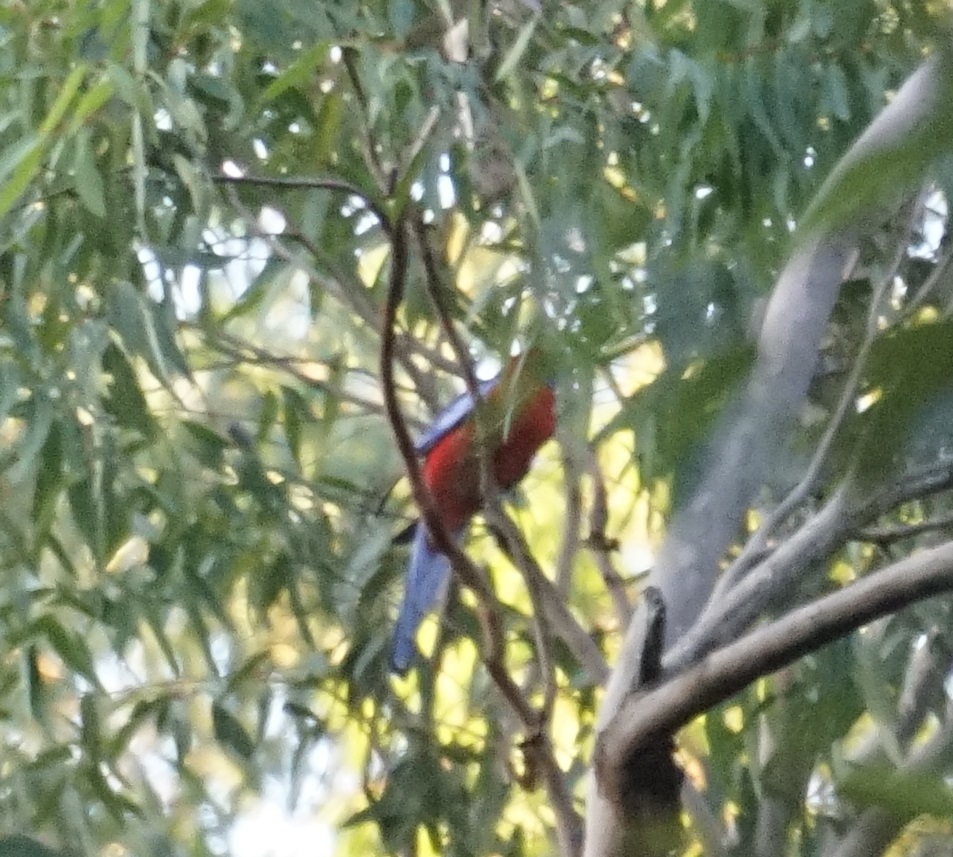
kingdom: Animalia
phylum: Chordata
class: Aves
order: Psittaciformes
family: Psittacidae
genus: Platycercus
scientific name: Platycercus elegans
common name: Crimson rosella
